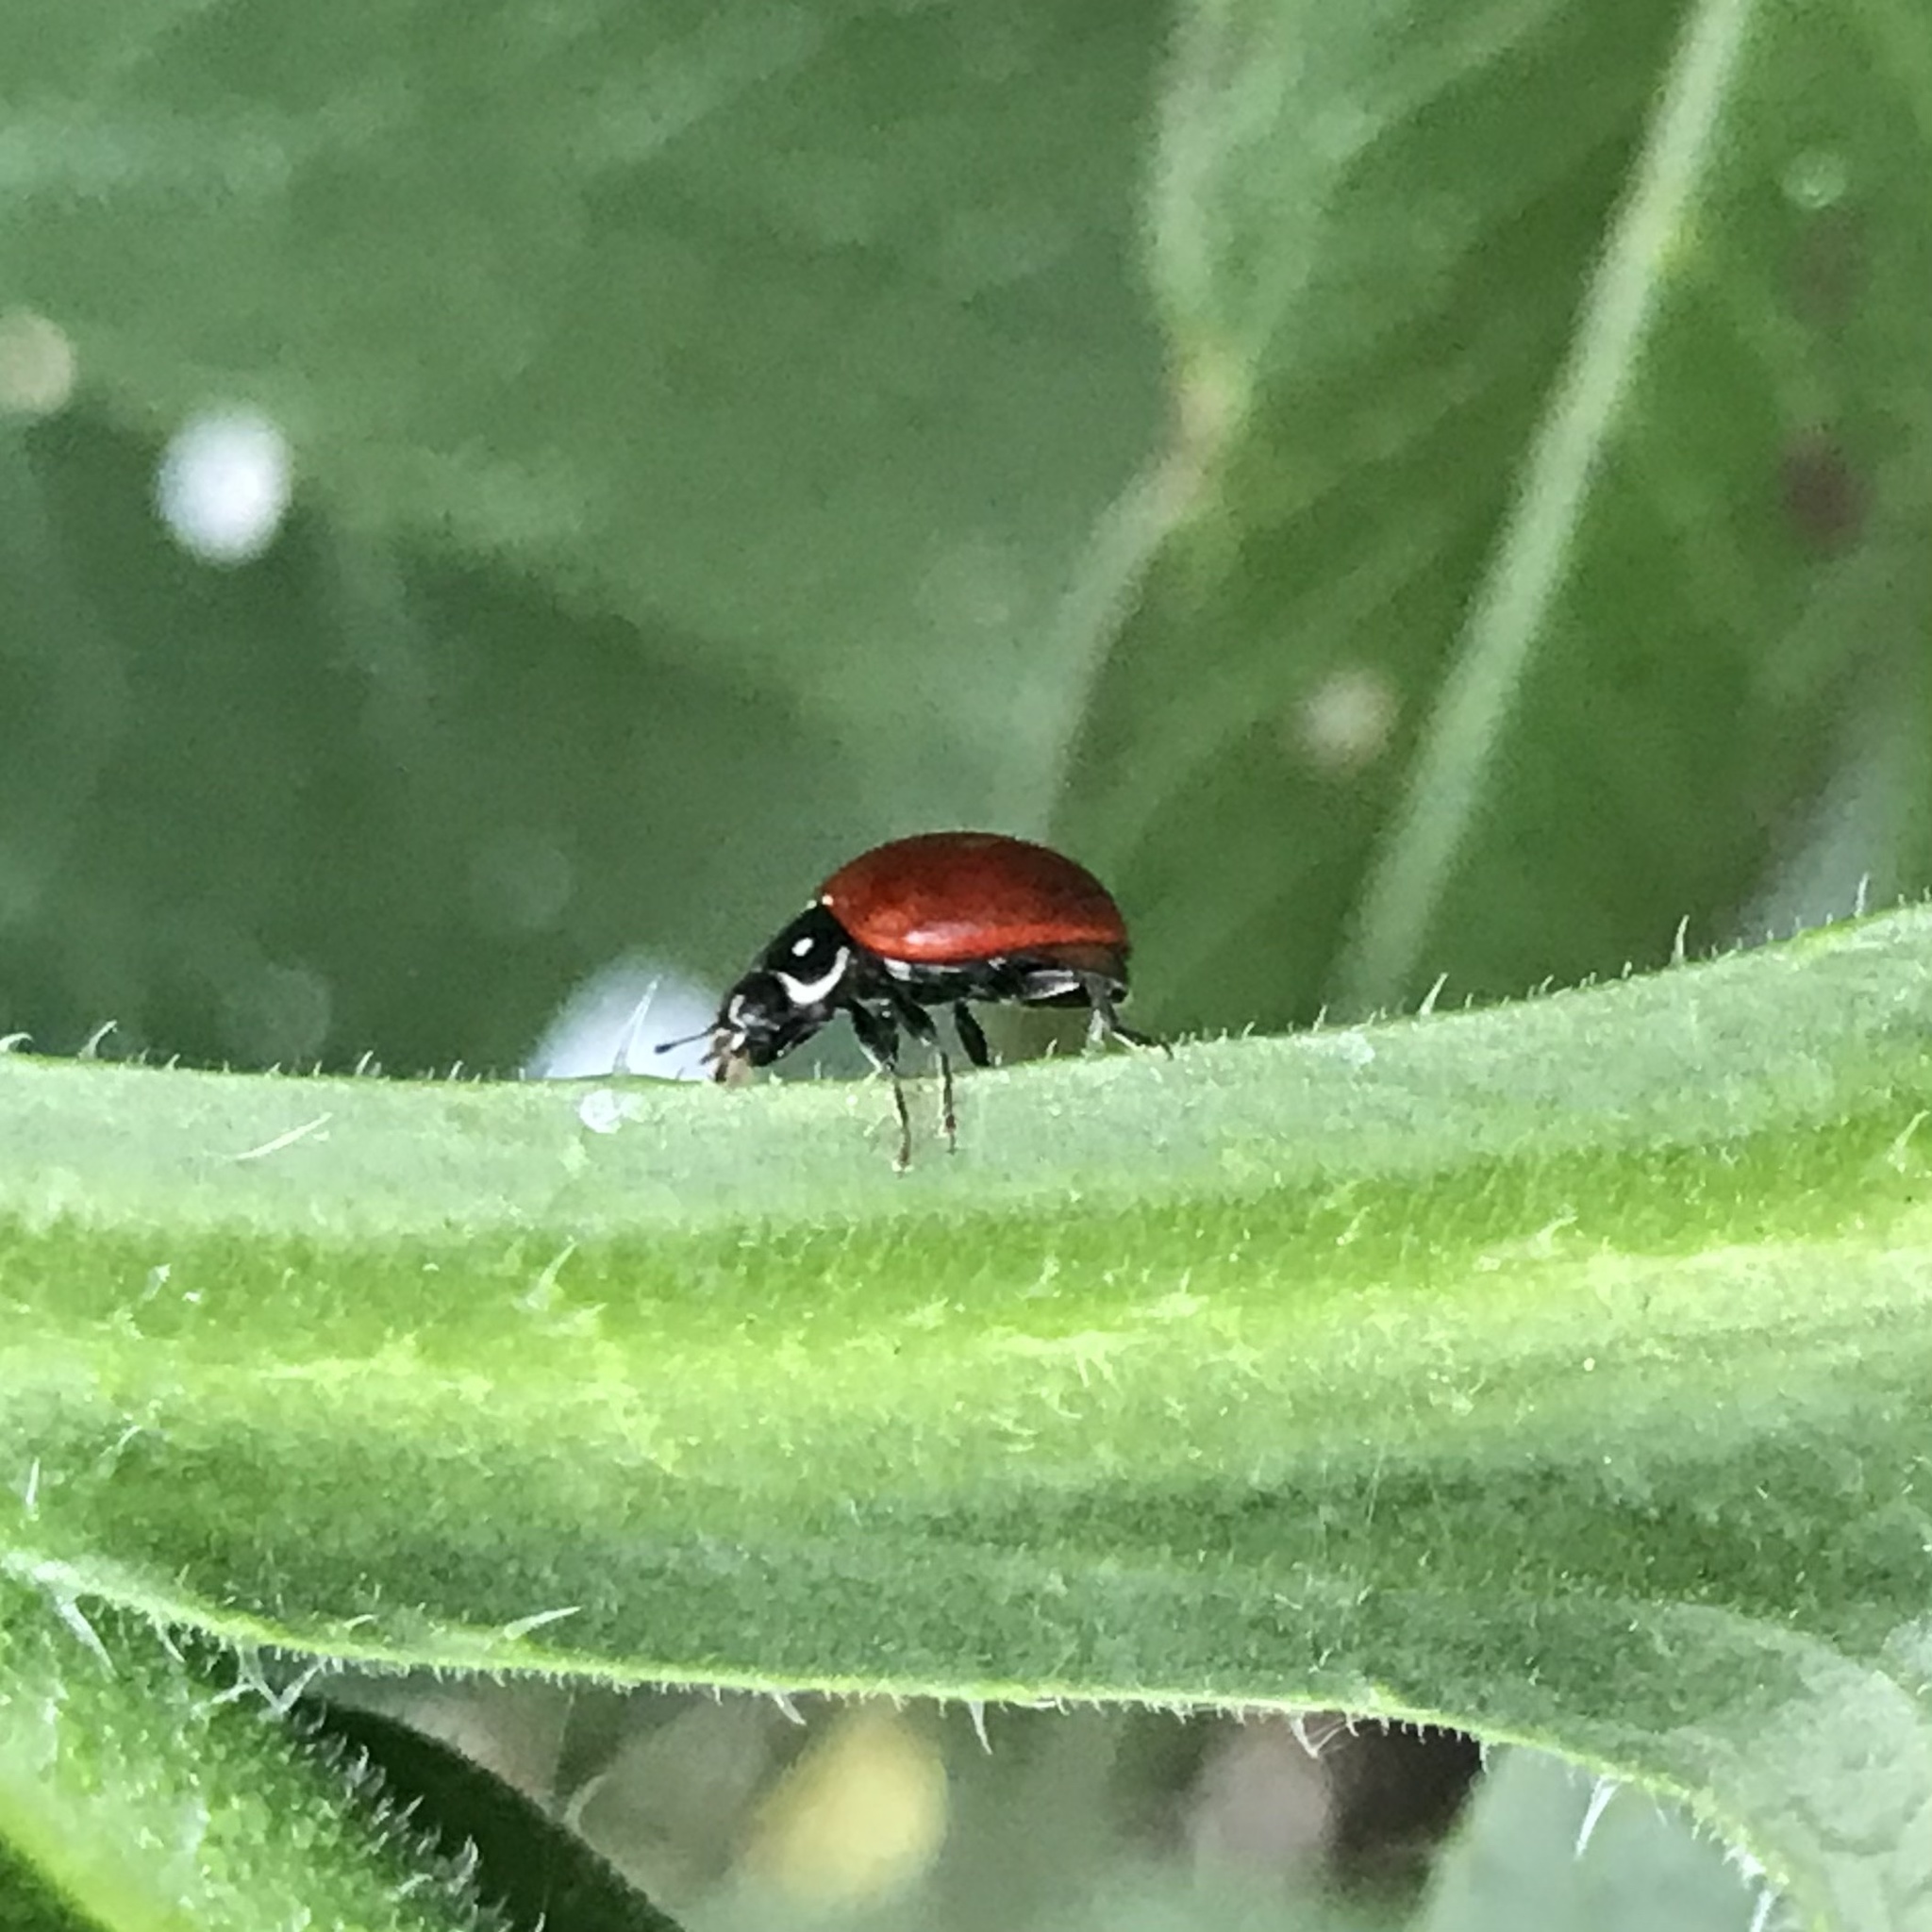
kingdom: Animalia
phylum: Arthropoda
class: Insecta
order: Coleoptera
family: Coccinellidae
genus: Cycloneda
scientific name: Cycloneda sanguinea
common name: Ladybird beetle
